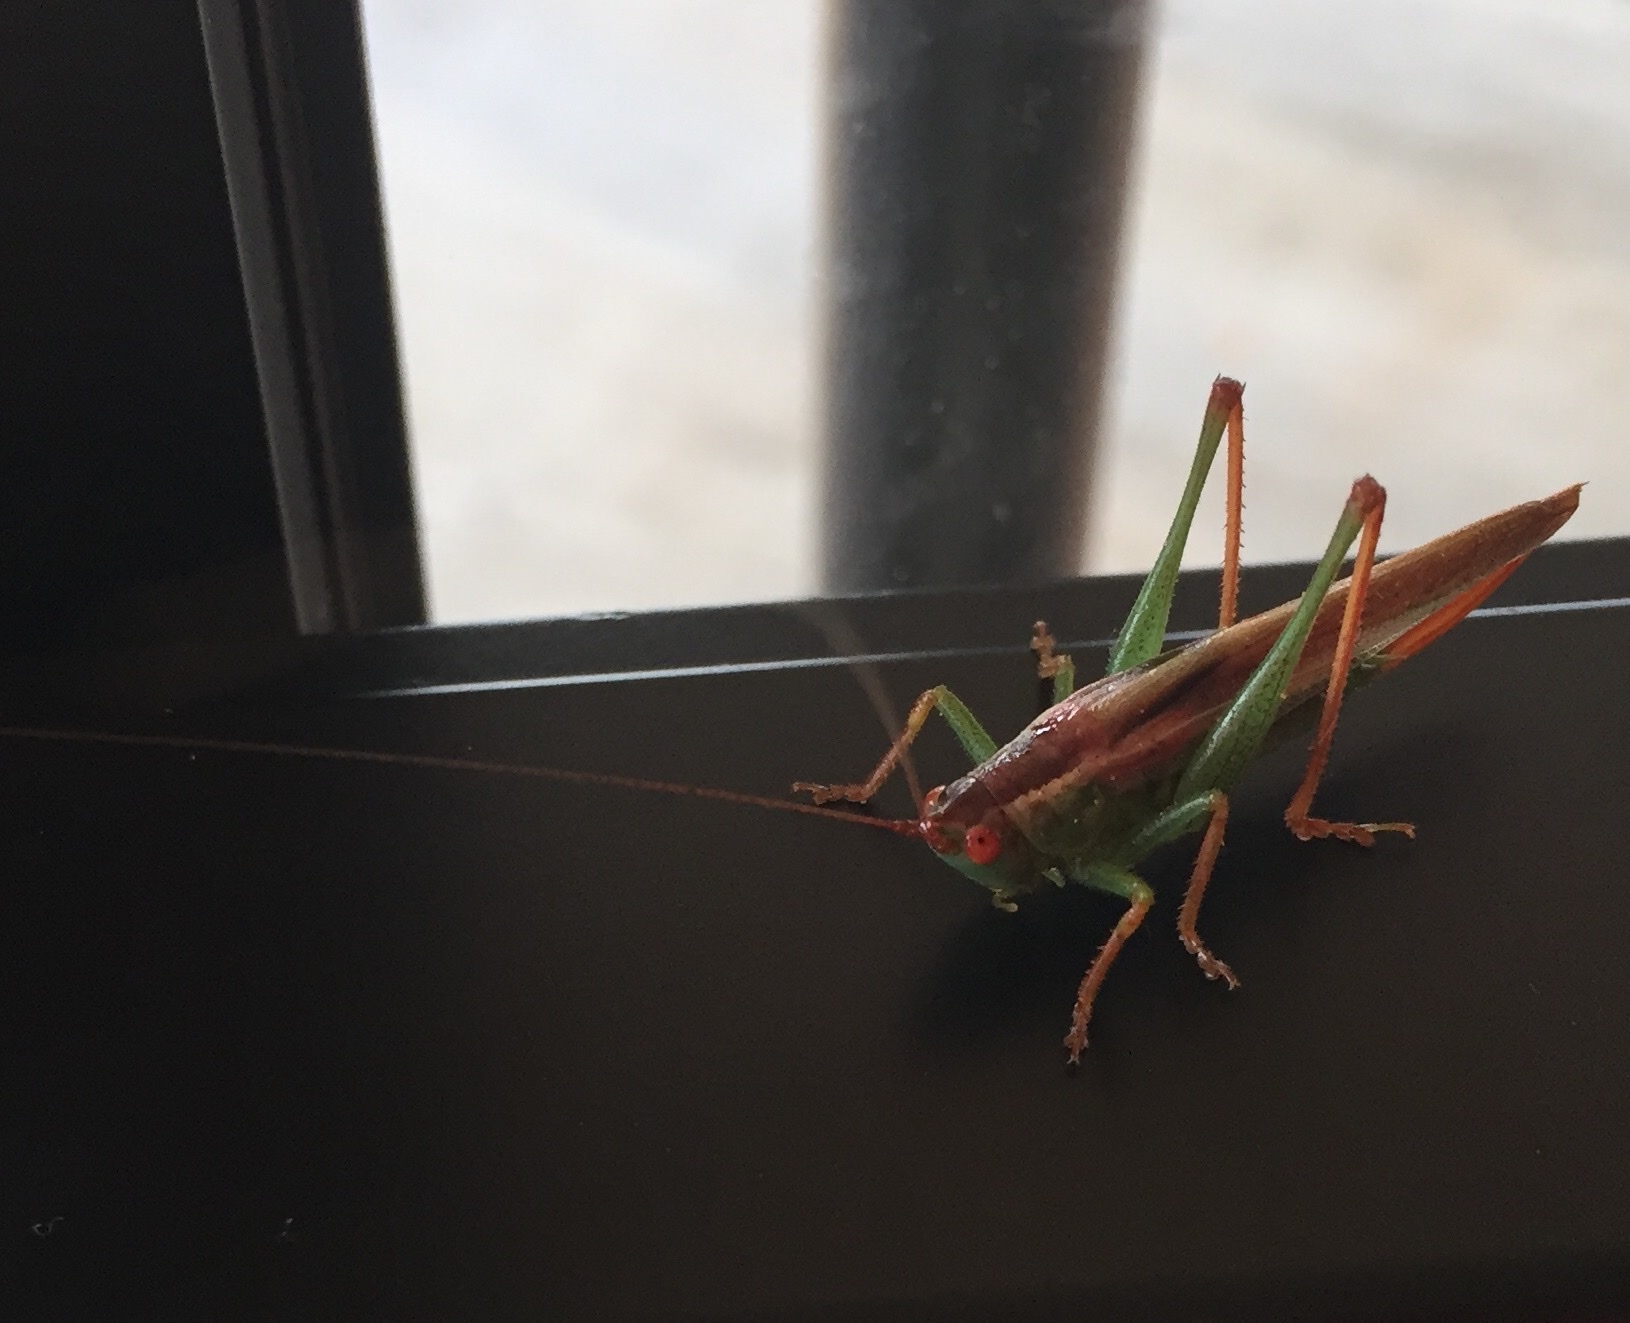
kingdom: Animalia
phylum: Arthropoda
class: Insecta
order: Orthoptera
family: Tettigoniidae
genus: Orchelimum
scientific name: Orchelimum minor
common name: Lesser pine meadow katydid
